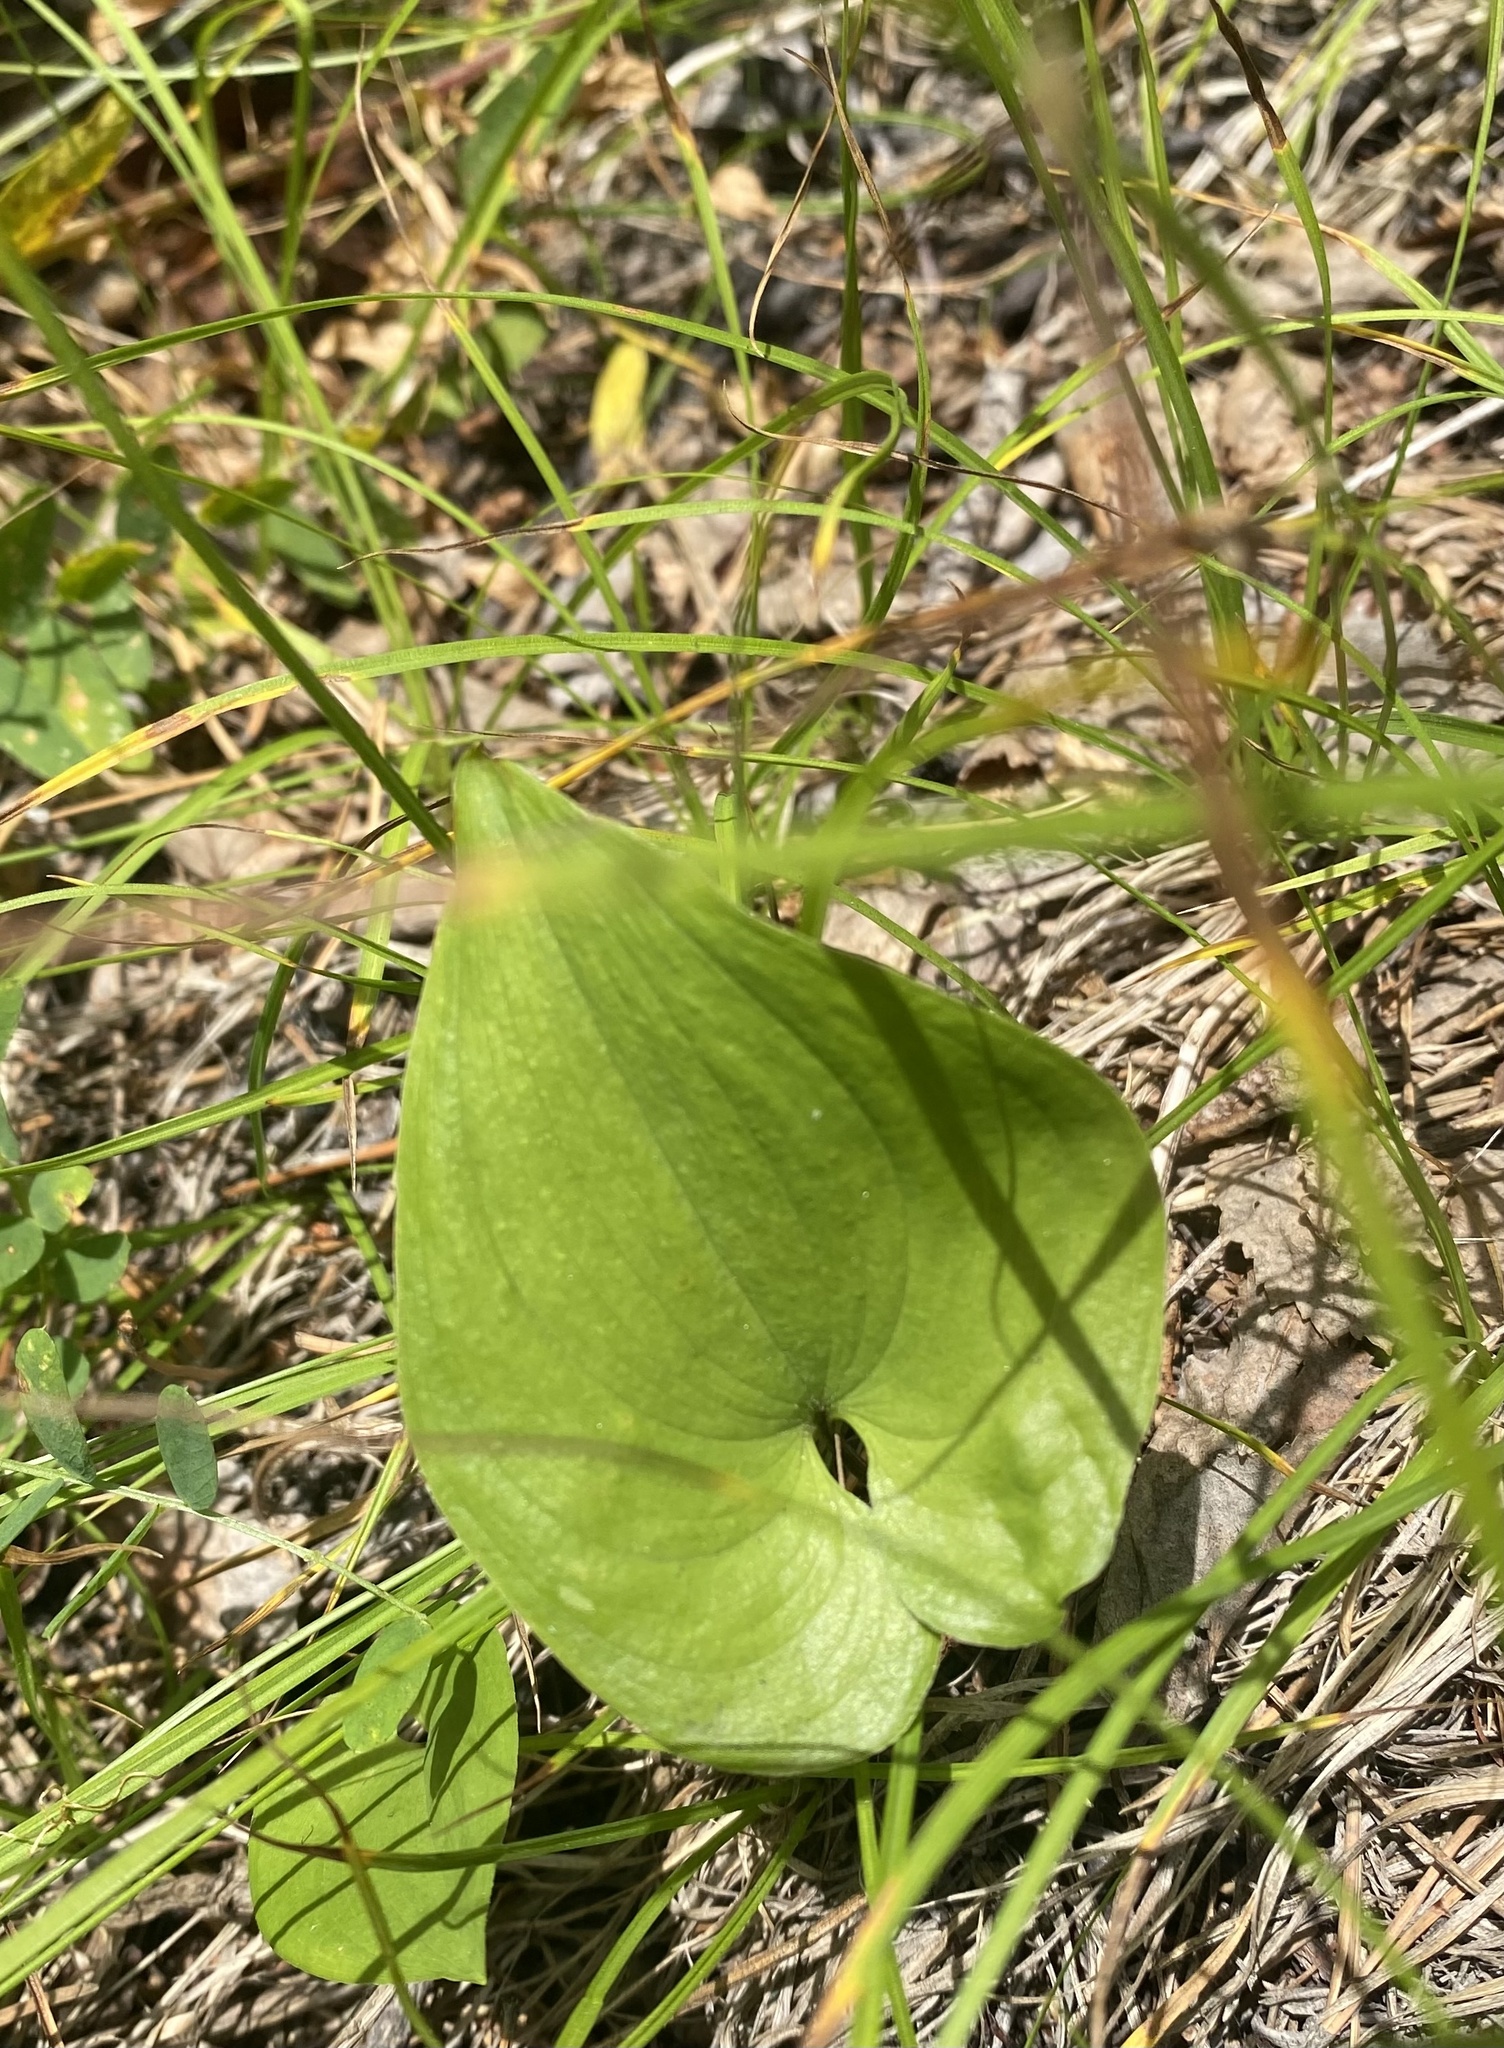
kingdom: Plantae
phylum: Tracheophyta
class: Liliopsida
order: Asparagales
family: Asparagaceae
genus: Maianthemum
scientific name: Maianthemum bifolium
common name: May lily
